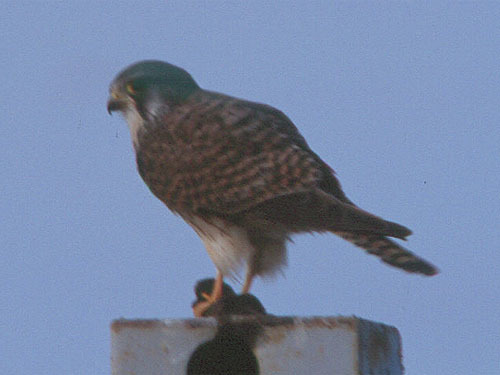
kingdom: Animalia
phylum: Chordata
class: Aves
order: Falconiformes
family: Falconidae
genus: Falco
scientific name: Falco tinnunculus
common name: Common kestrel
